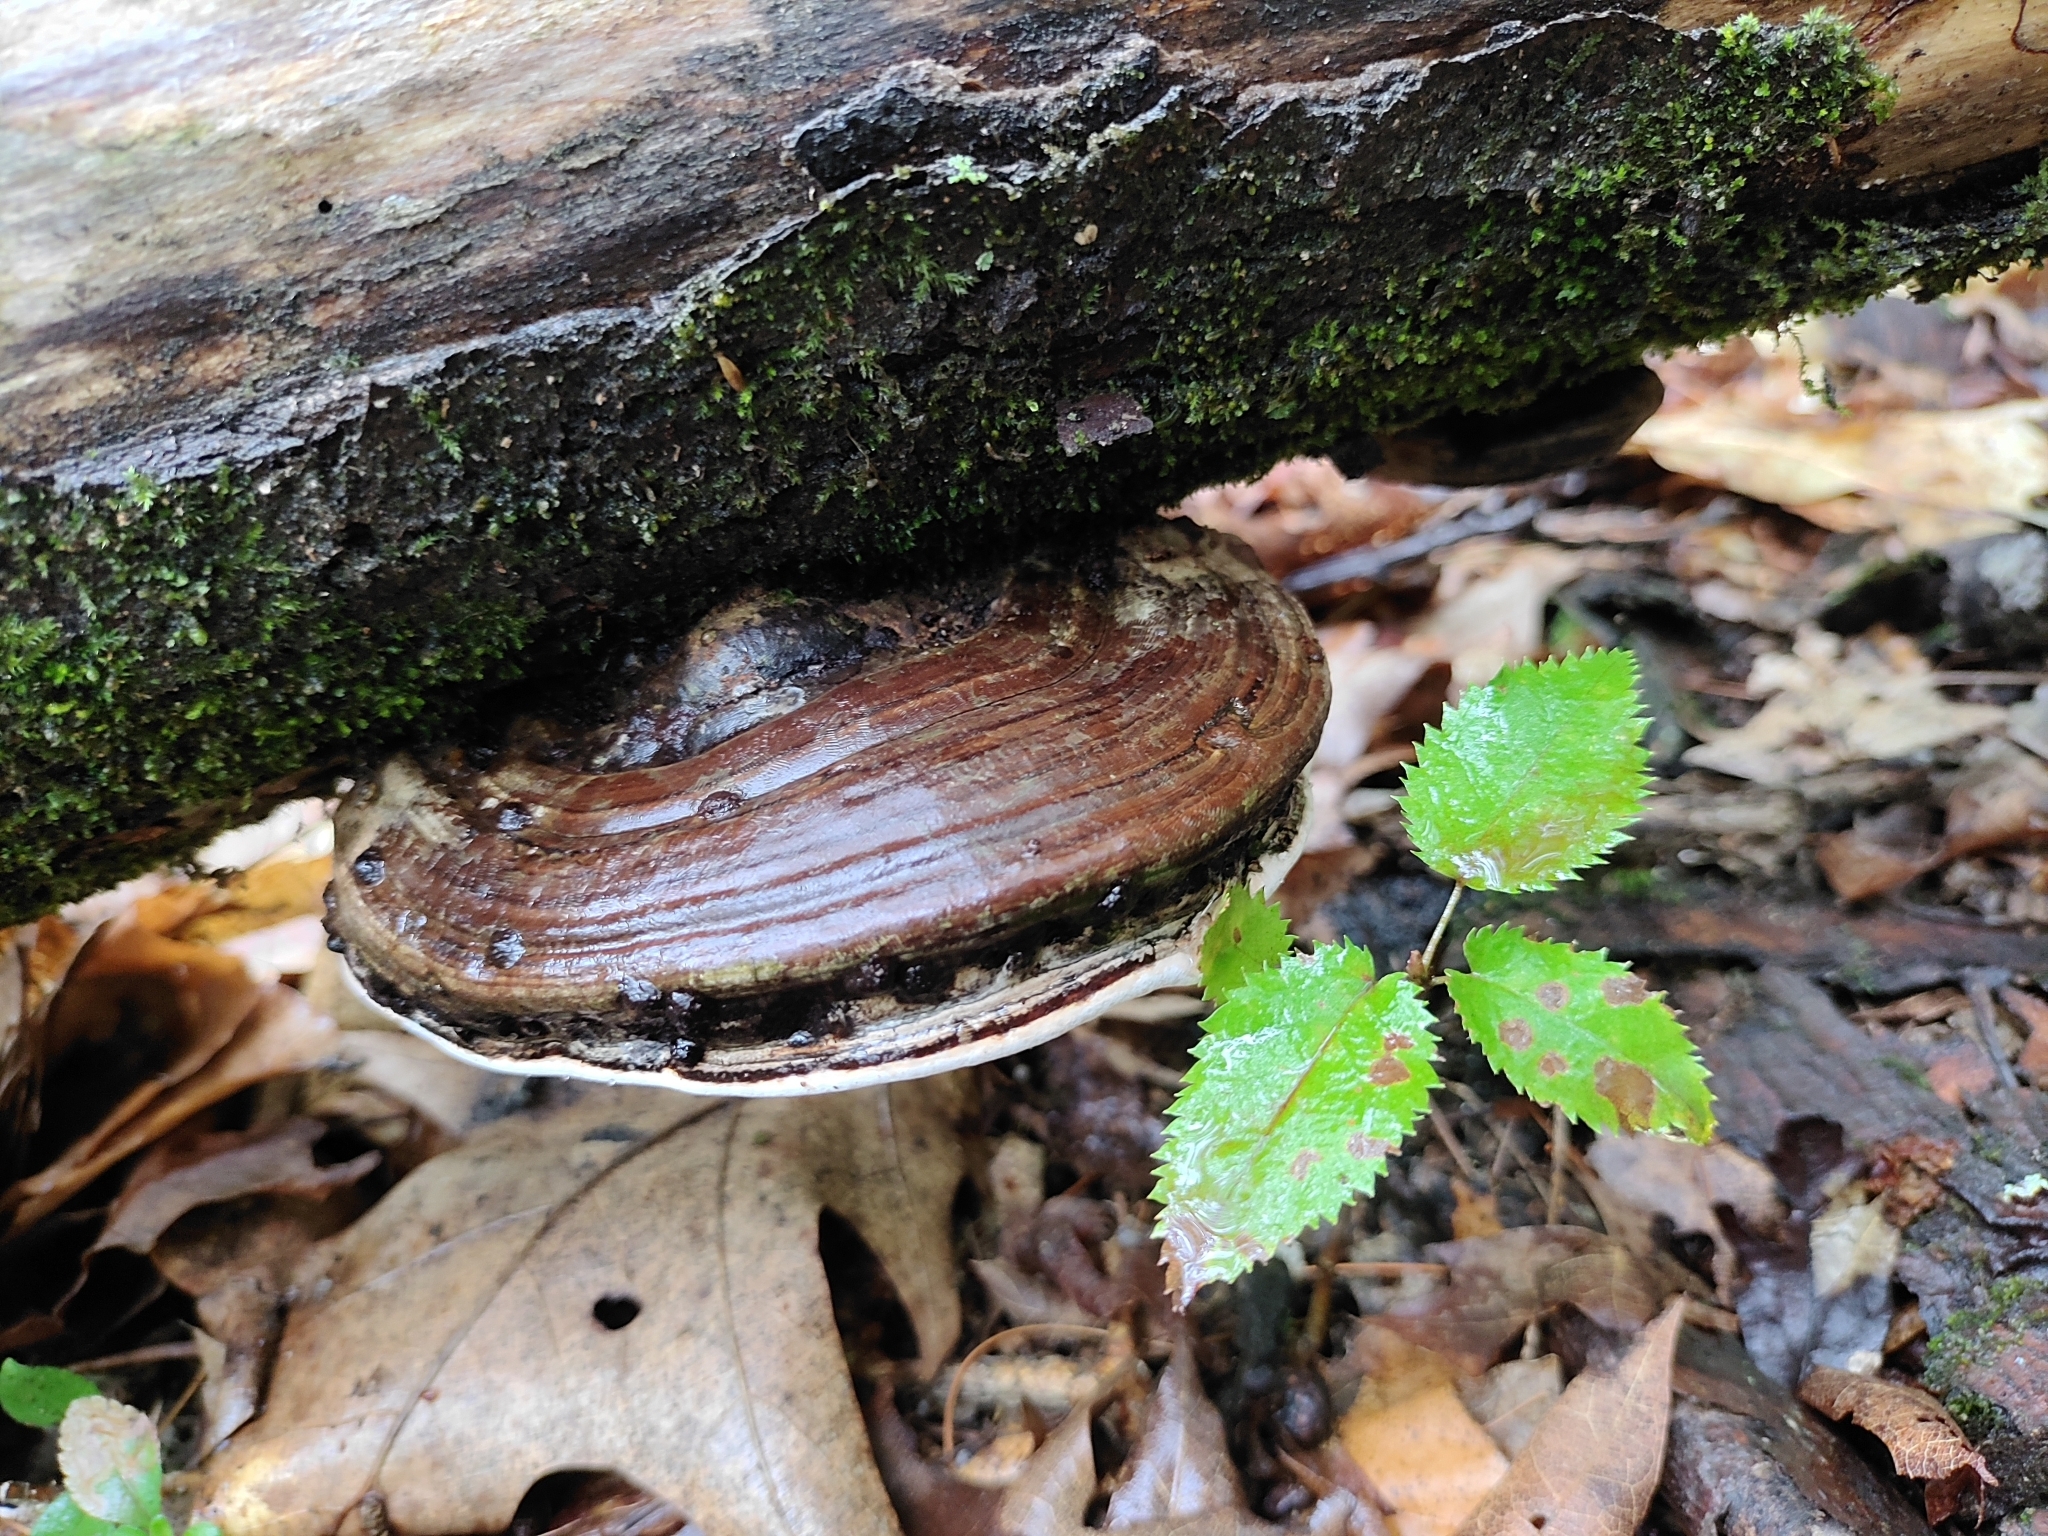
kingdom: Fungi
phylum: Basidiomycota
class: Agaricomycetes
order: Polyporales
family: Polyporaceae
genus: Ganoderma
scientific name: Ganoderma applanatum
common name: Artist's bracket
